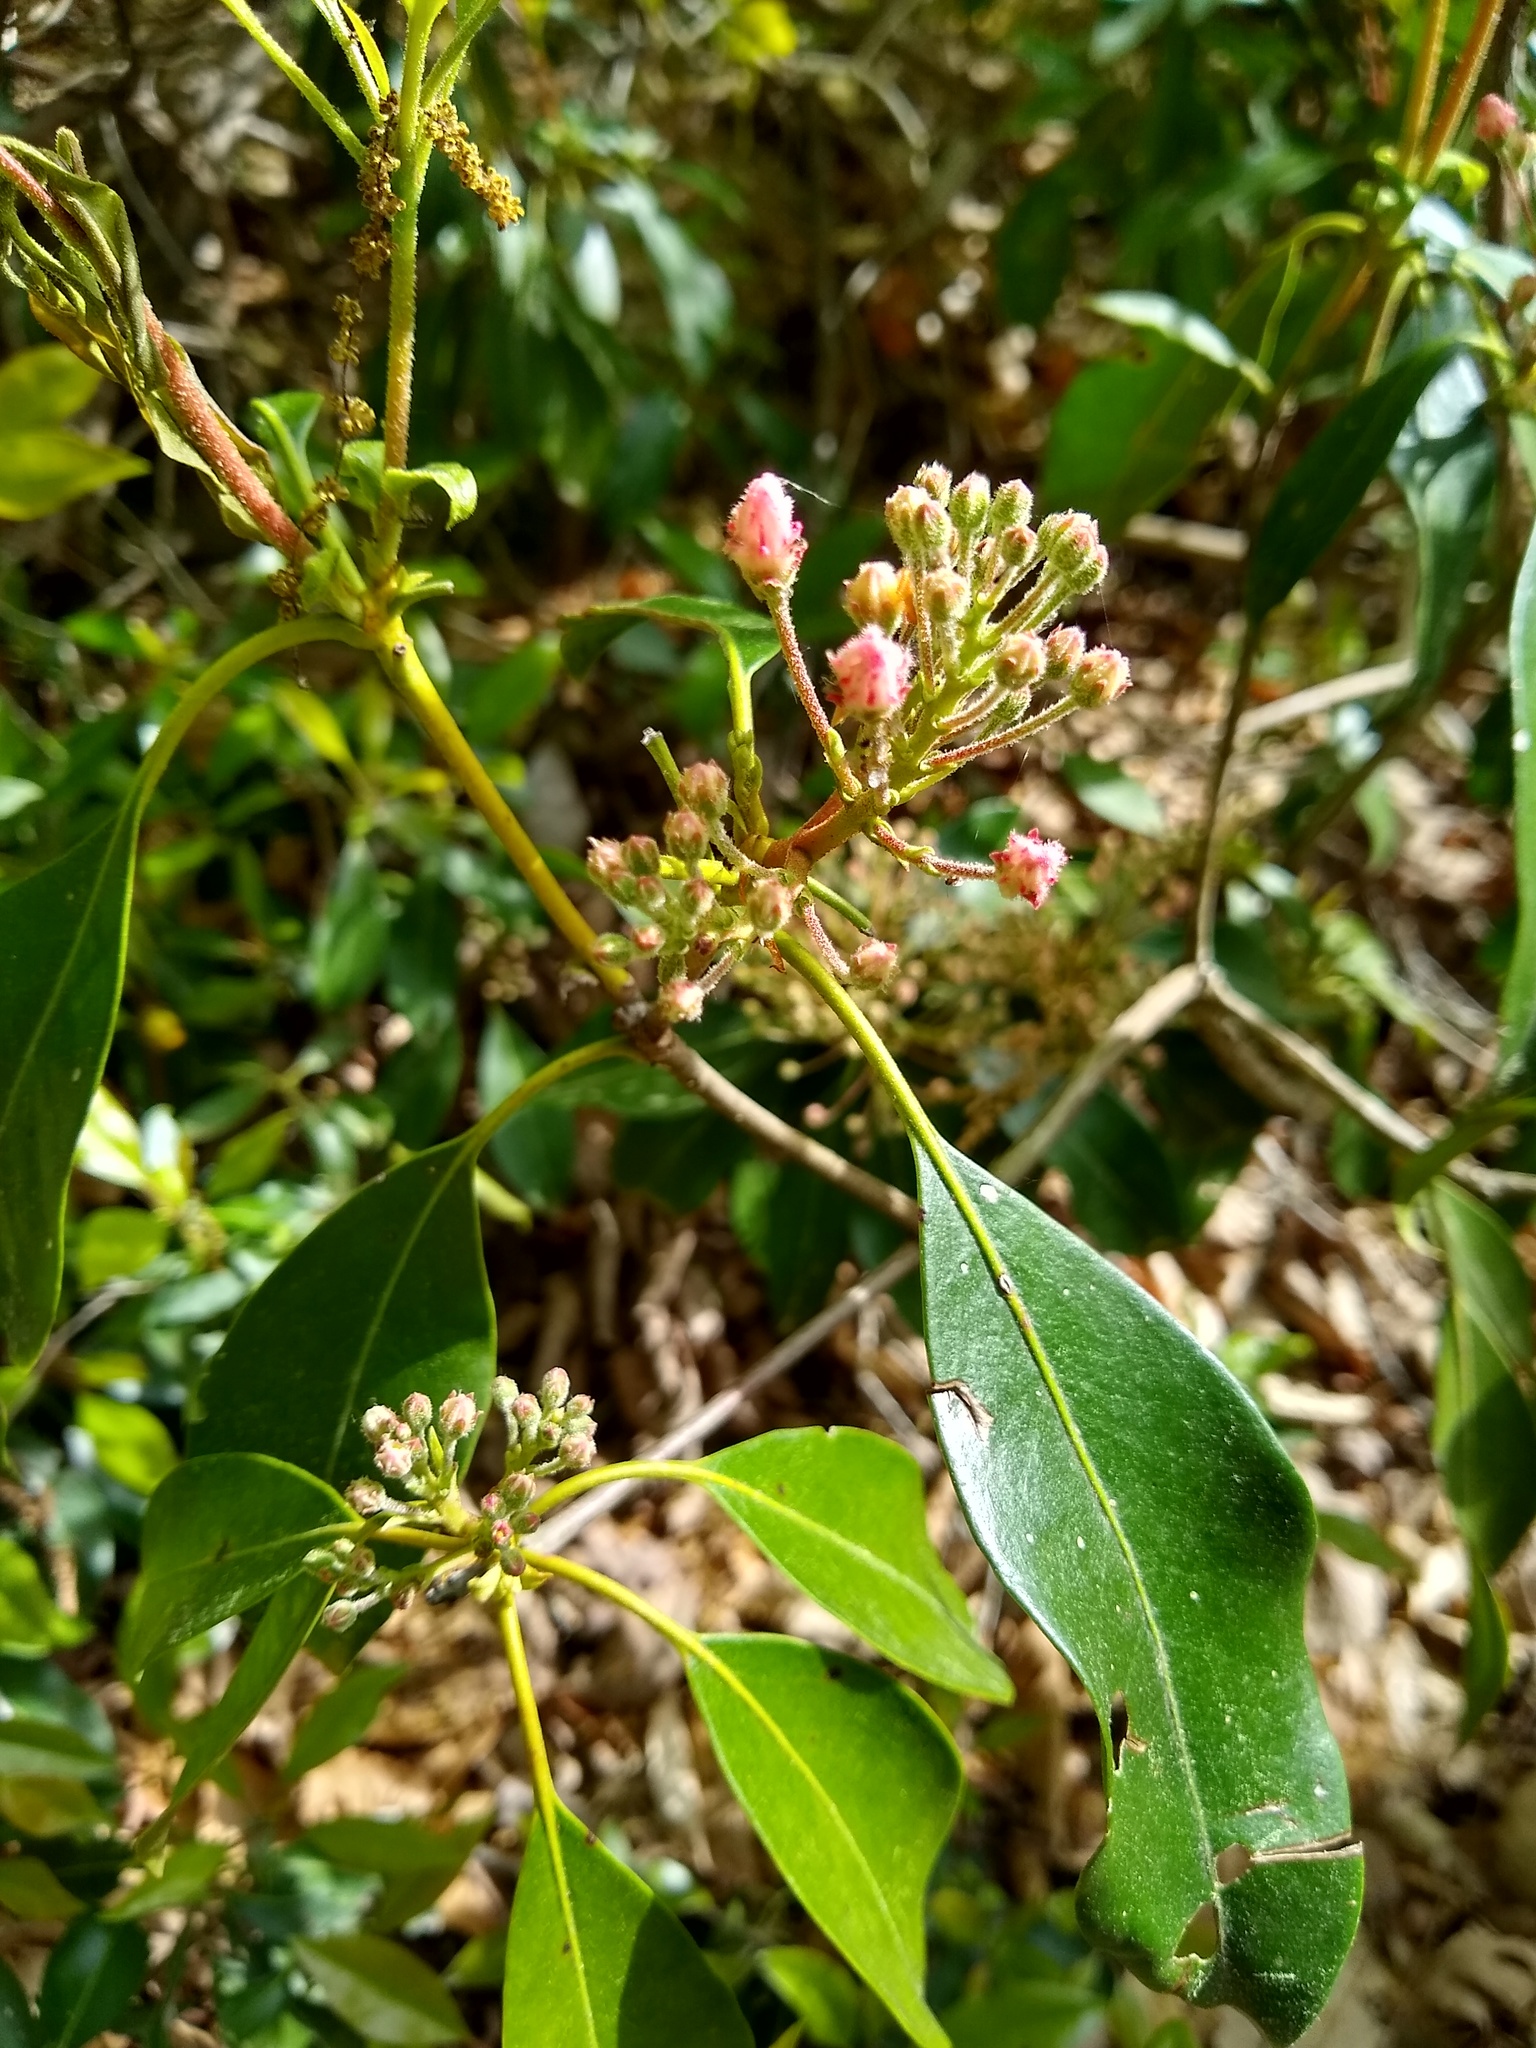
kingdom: Plantae
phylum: Tracheophyta
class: Magnoliopsida
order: Ericales
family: Ericaceae
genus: Kalmia
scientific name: Kalmia latifolia
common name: Mountain-laurel
